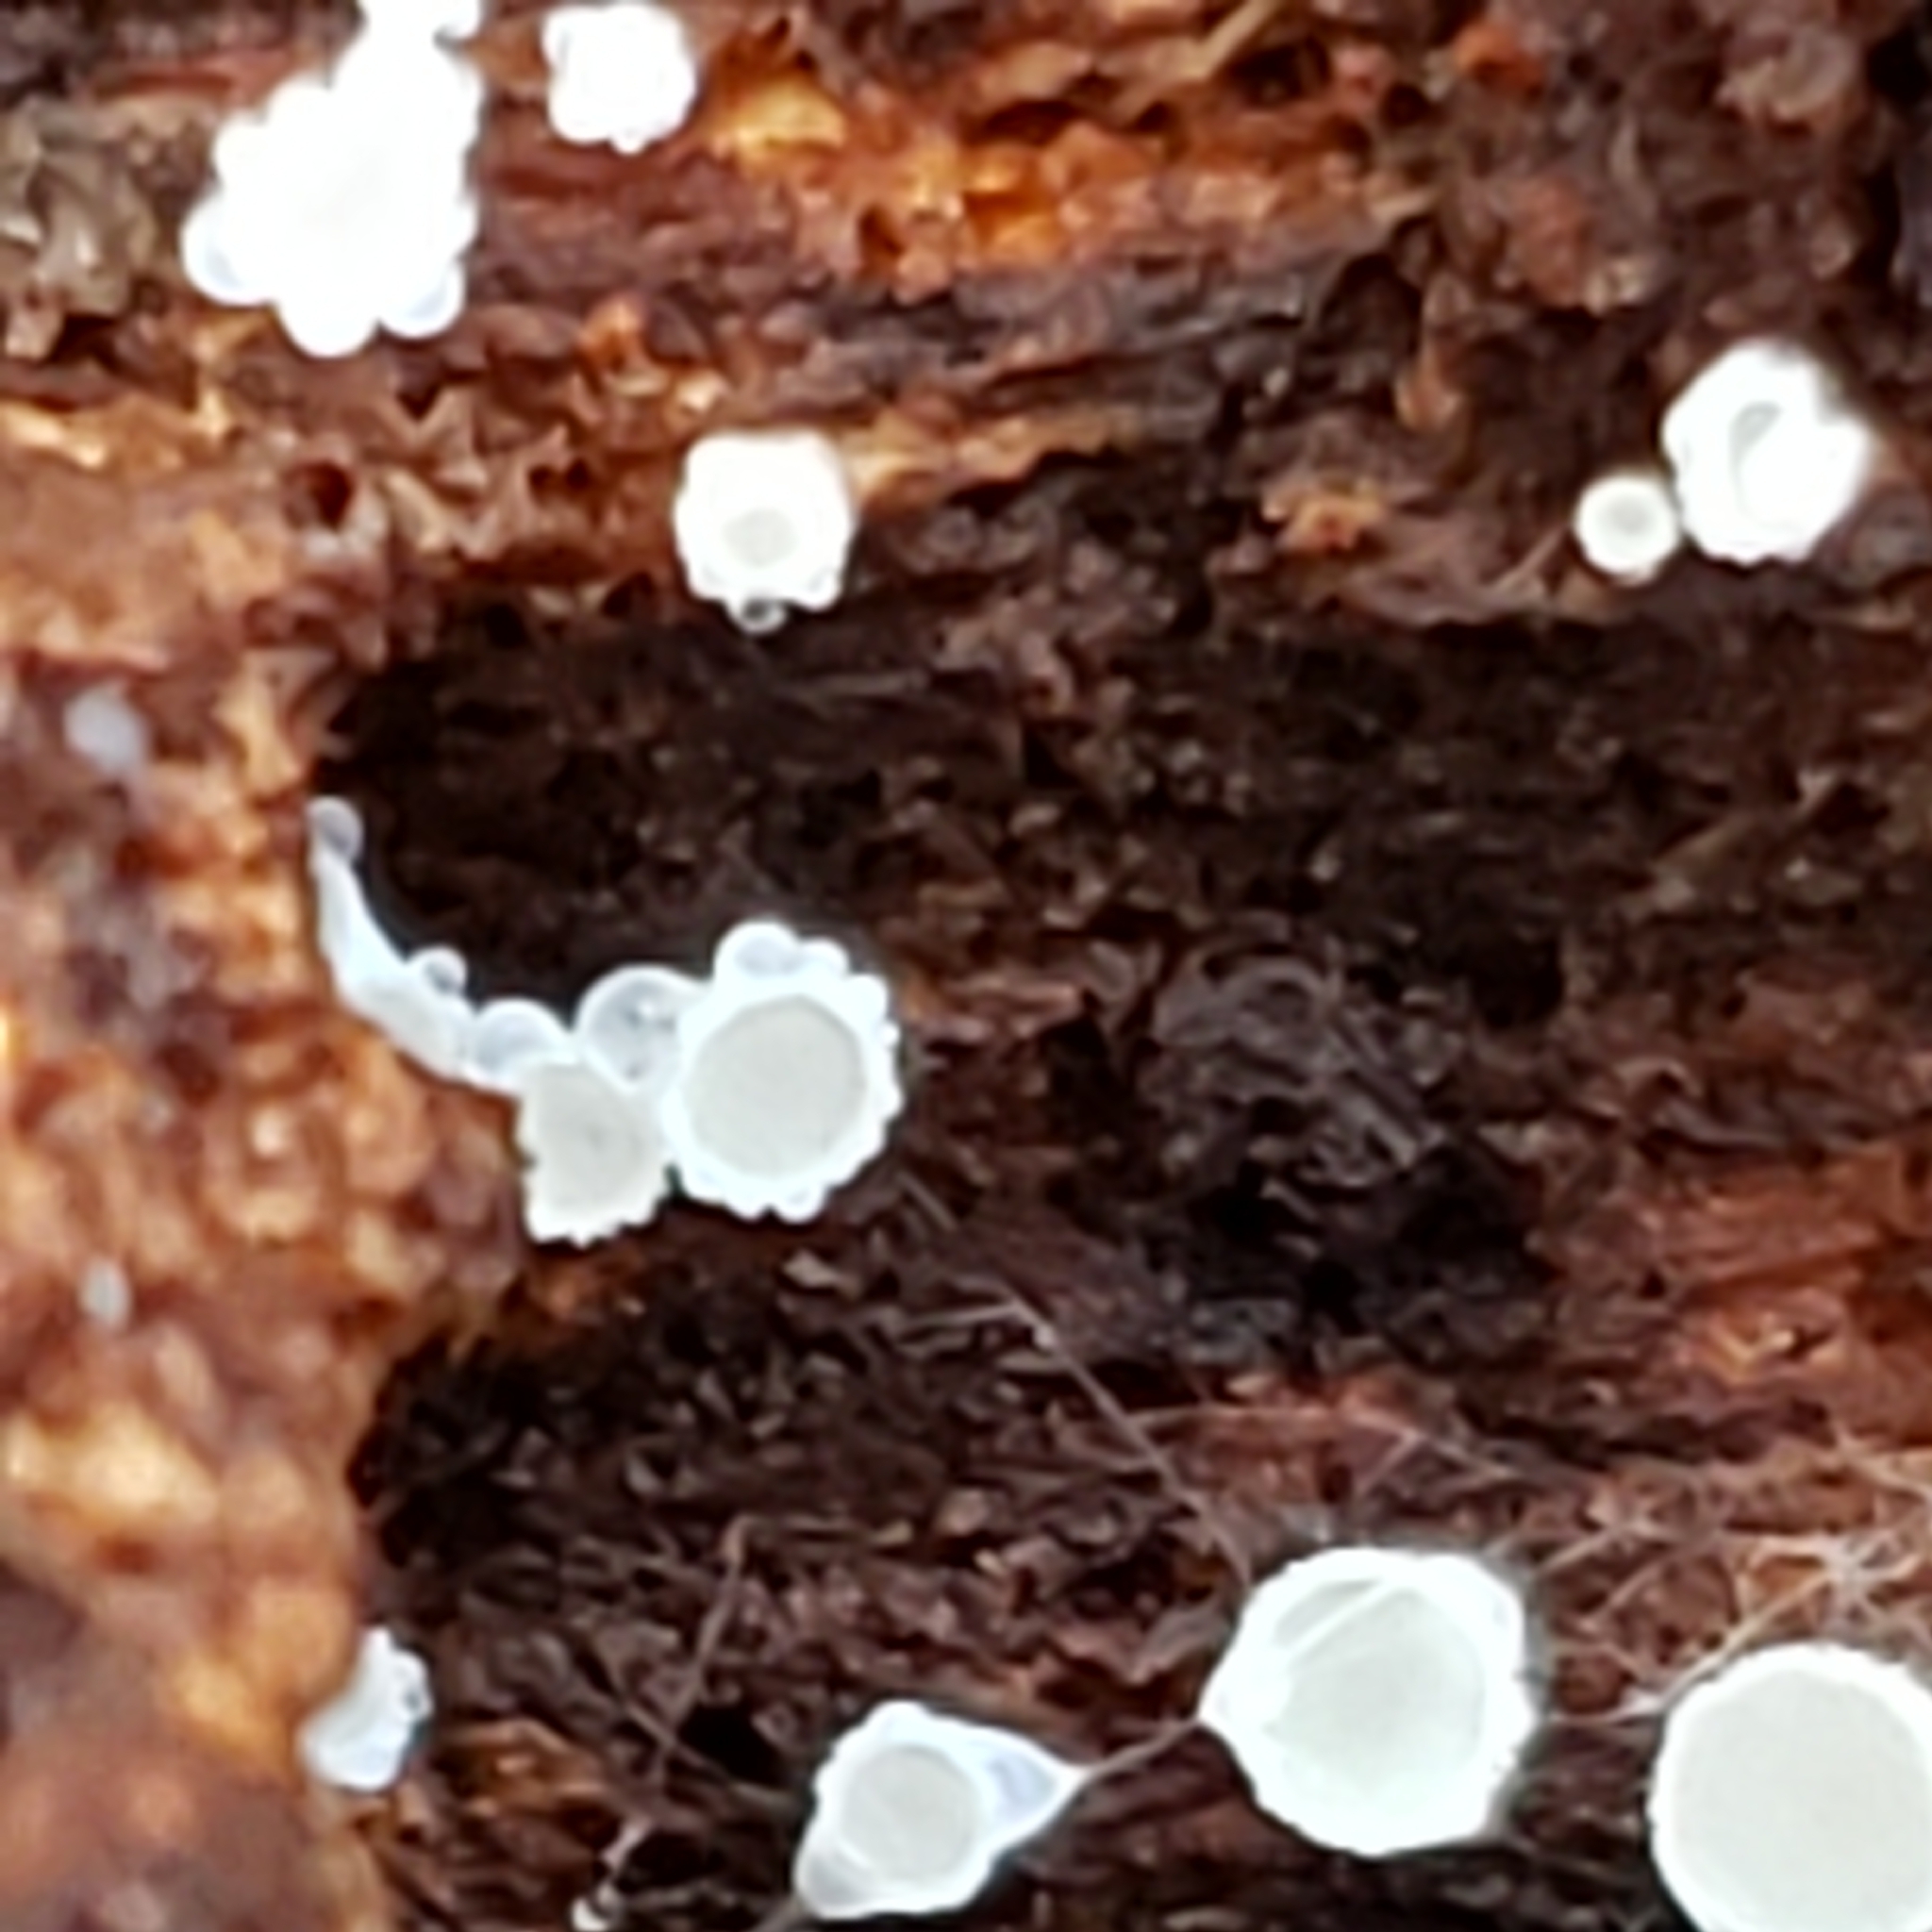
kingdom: Fungi
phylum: Ascomycota
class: Leotiomycetes
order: Helotiales
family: Lachnaceae
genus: Lachnum
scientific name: Lachnum virgineum
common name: Snowy disco
